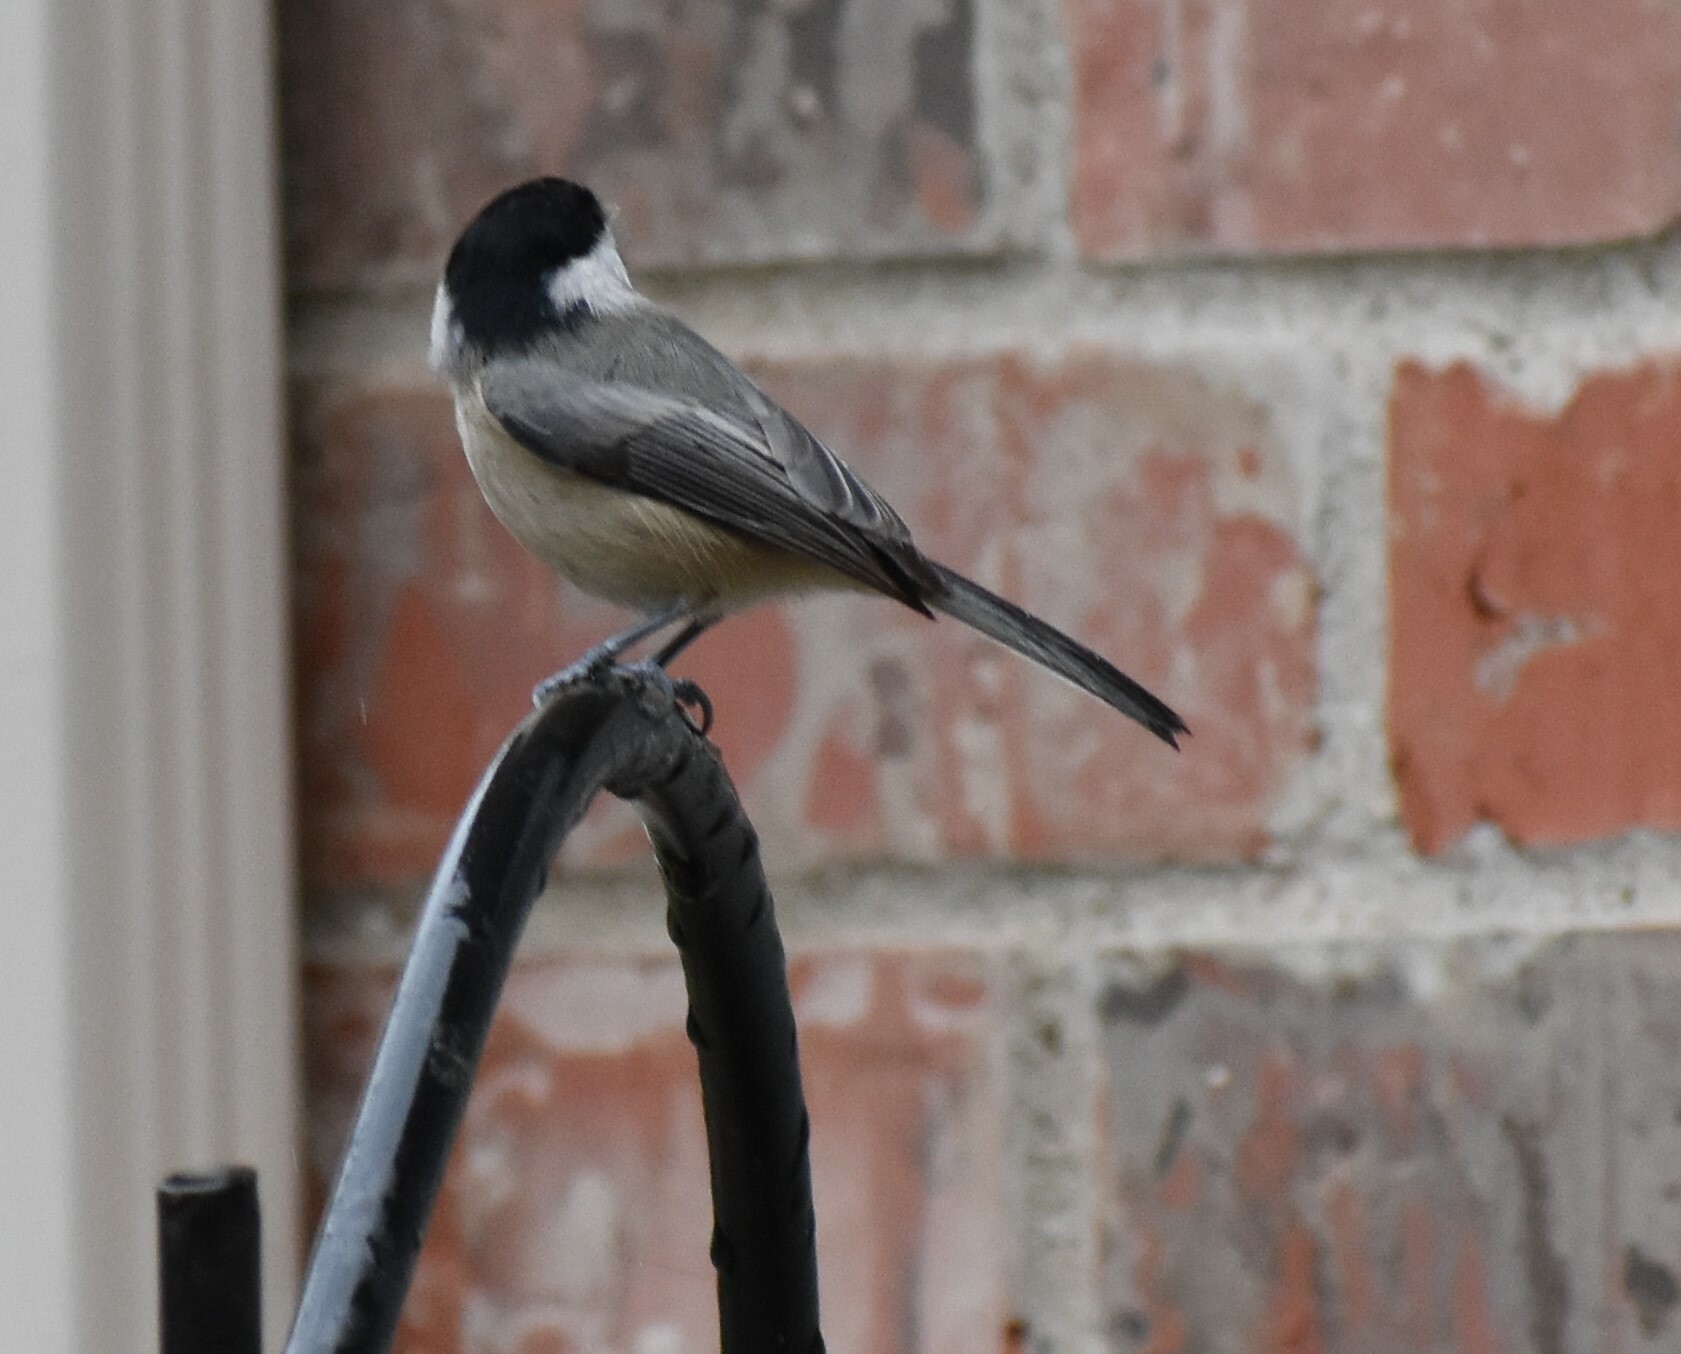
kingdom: Animalia
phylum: Chordata
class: Aves
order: Passeriformes
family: Paridae
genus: Poecile
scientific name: Poecile carolinensis
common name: Carolina chickadee
